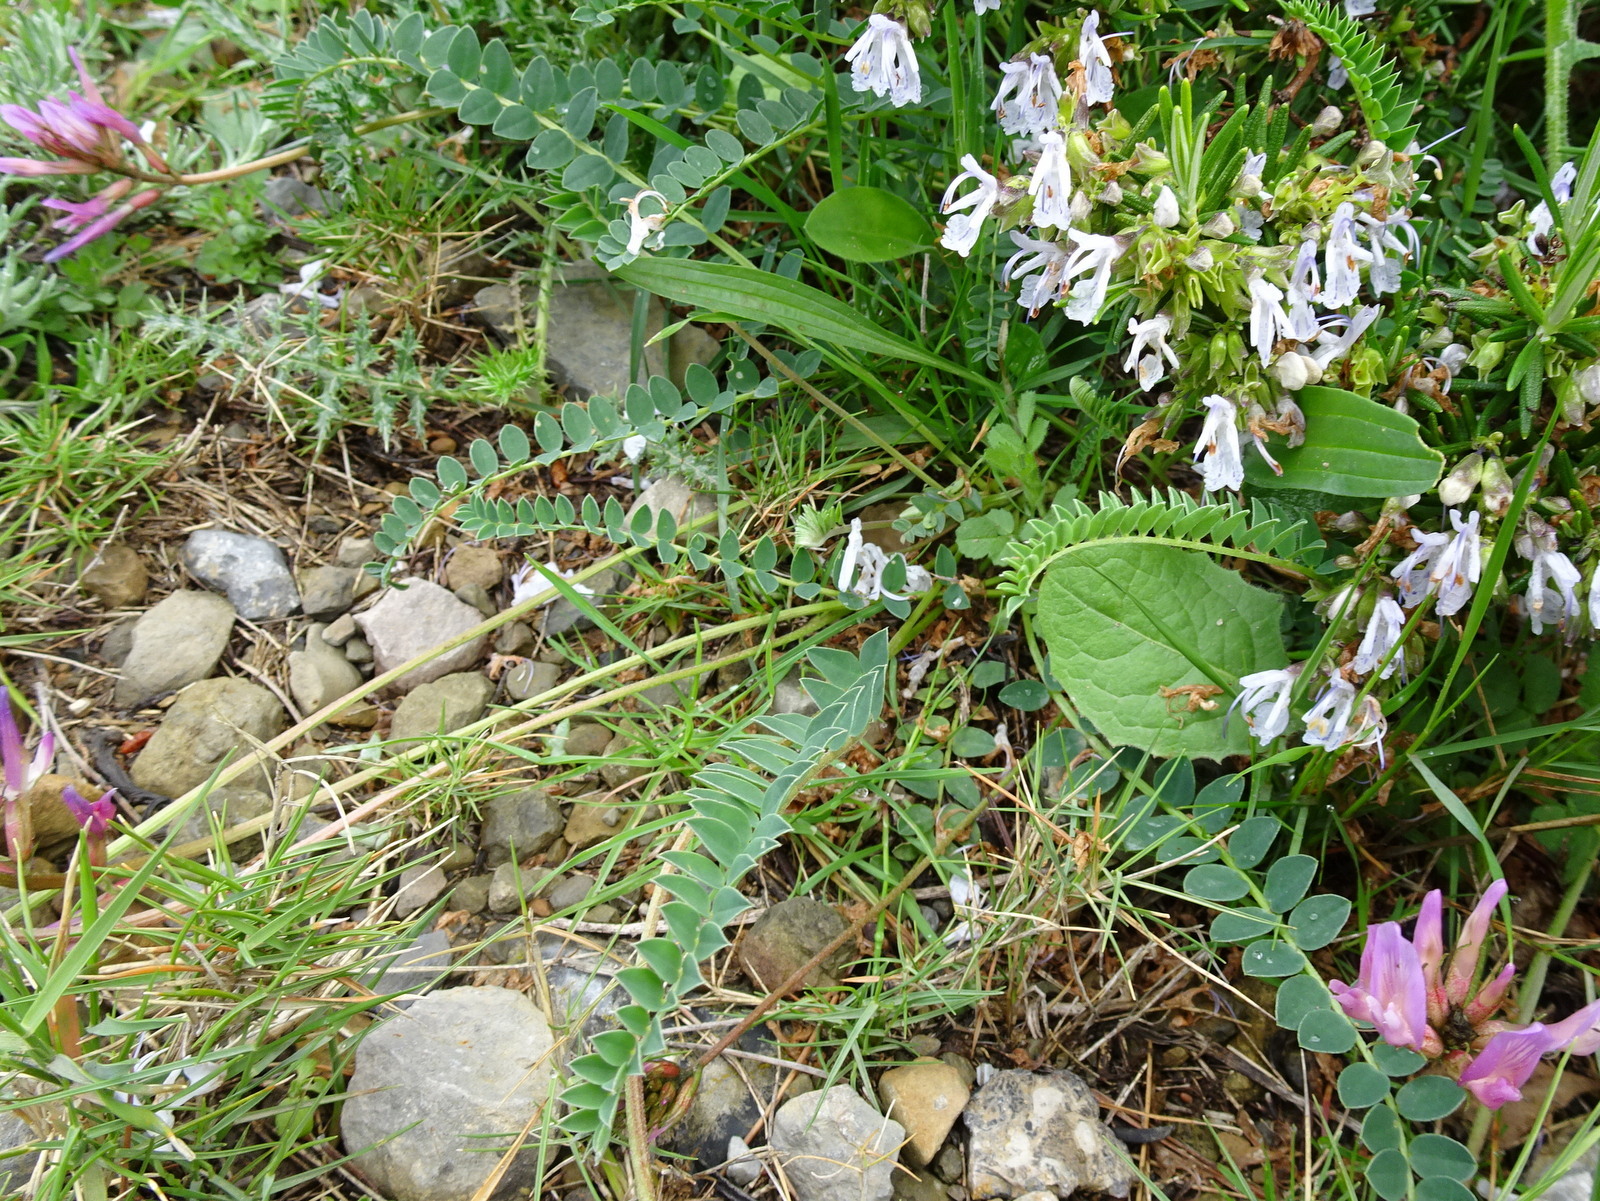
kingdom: Plantae
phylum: Tracheophyta
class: Magnoliopsida
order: Fabales
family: Fabaceae
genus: Astragalus
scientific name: Astragalus monspessulanus
